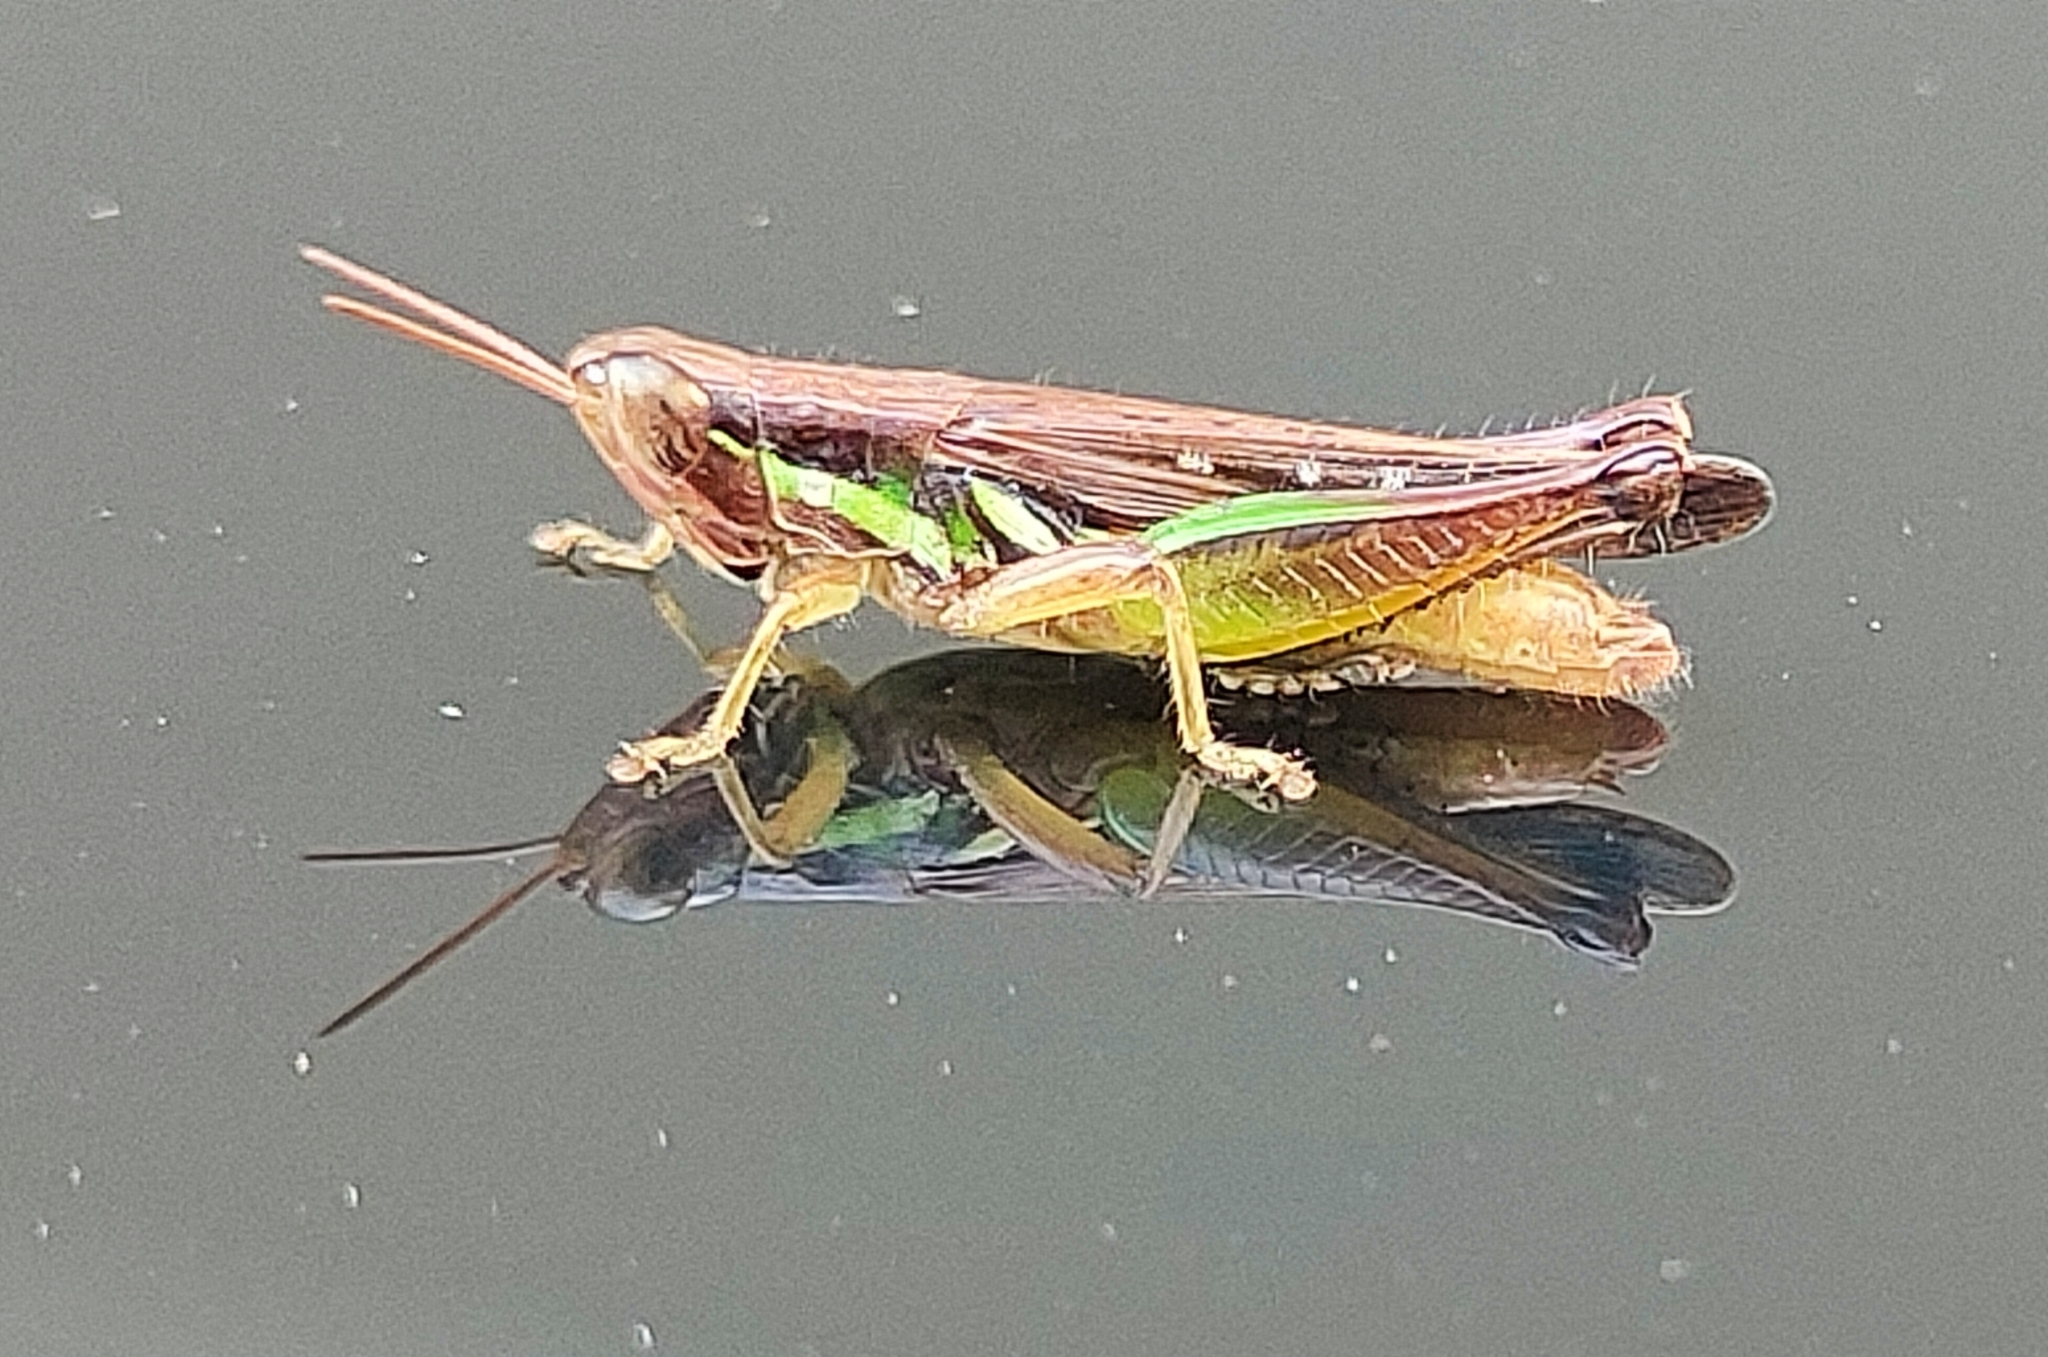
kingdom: Animalia
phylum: Arthropoda
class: Insecta
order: Orthoptera
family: Acrididae
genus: Spathosternum
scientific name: Spathosternum prasiniferum
